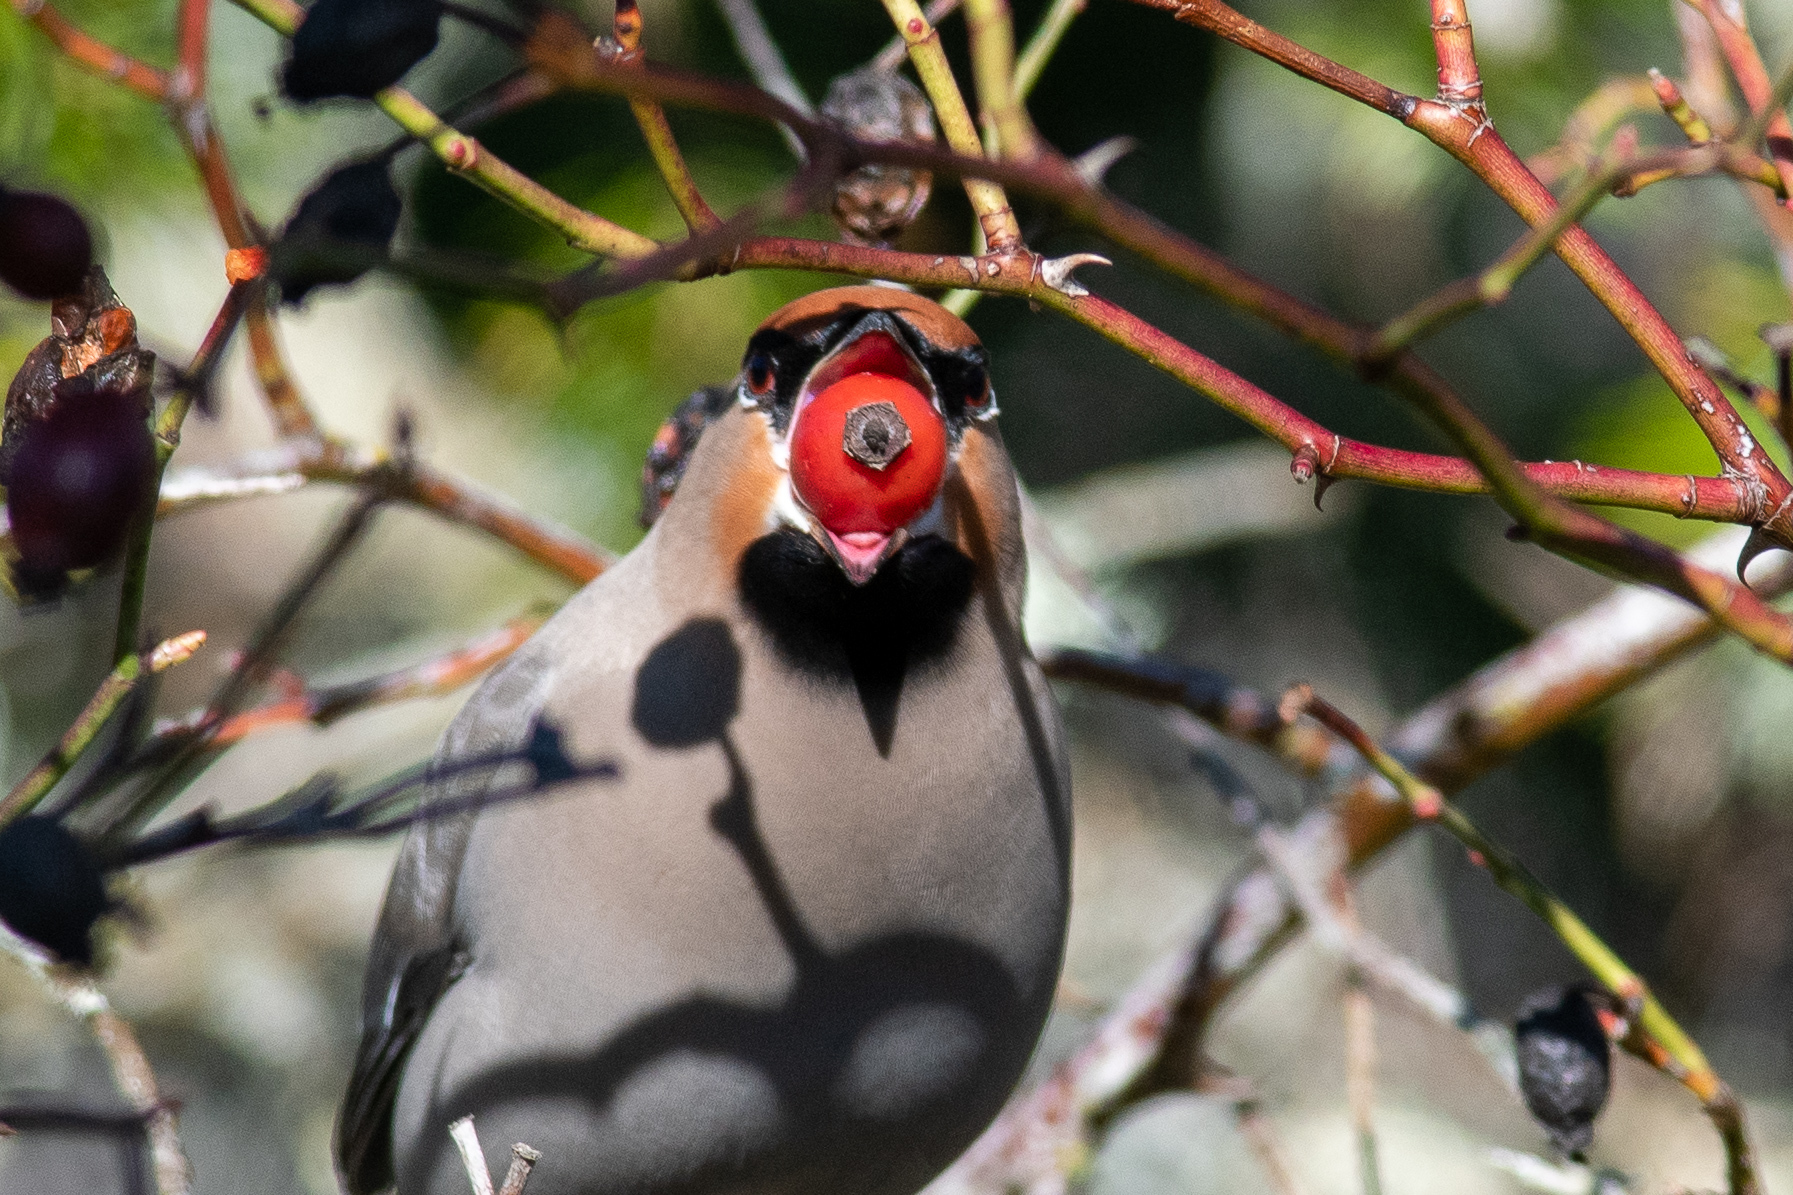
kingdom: Animalia
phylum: Chordata
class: Aves
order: Passeriformes
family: Bombycillidae
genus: Bombycilla
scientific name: Bombycilla garrulus
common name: Bohemian waxwing
